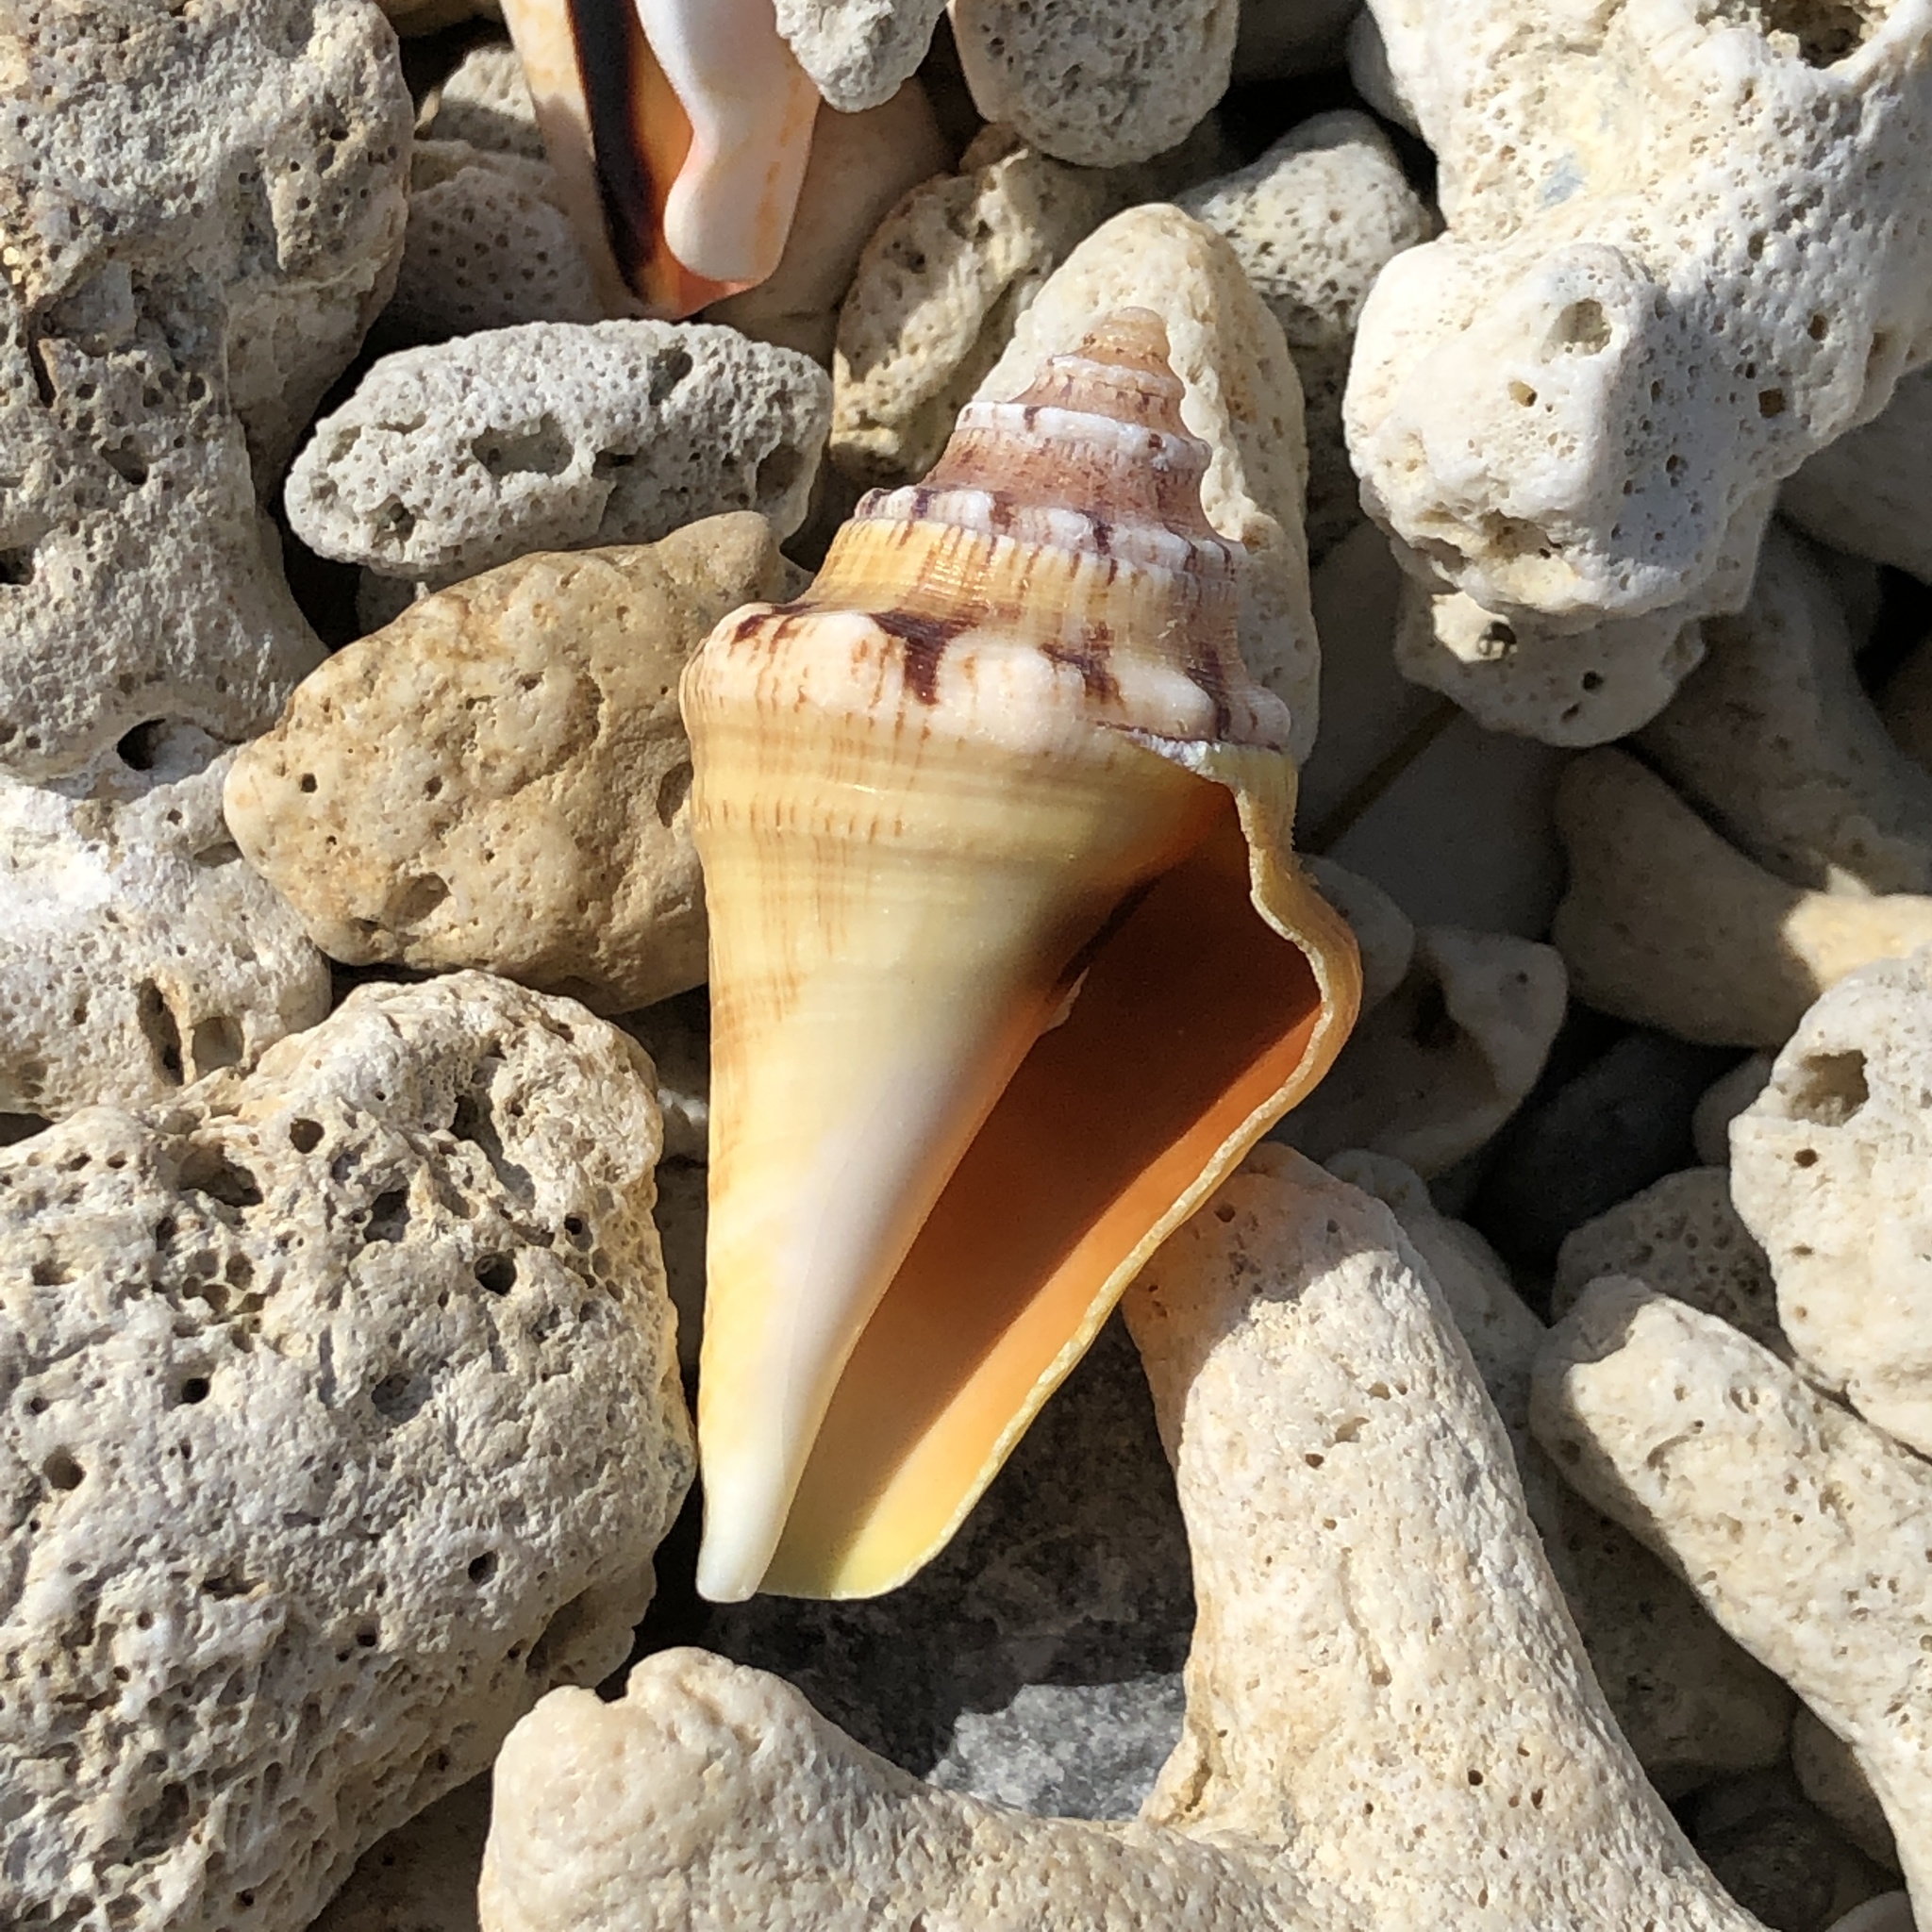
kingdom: Animalia
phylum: Mollusca
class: Gastropoda
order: Littorinimorpha
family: Strombidae
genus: Lambis
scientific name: Lambis lambis
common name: Common spider conch
